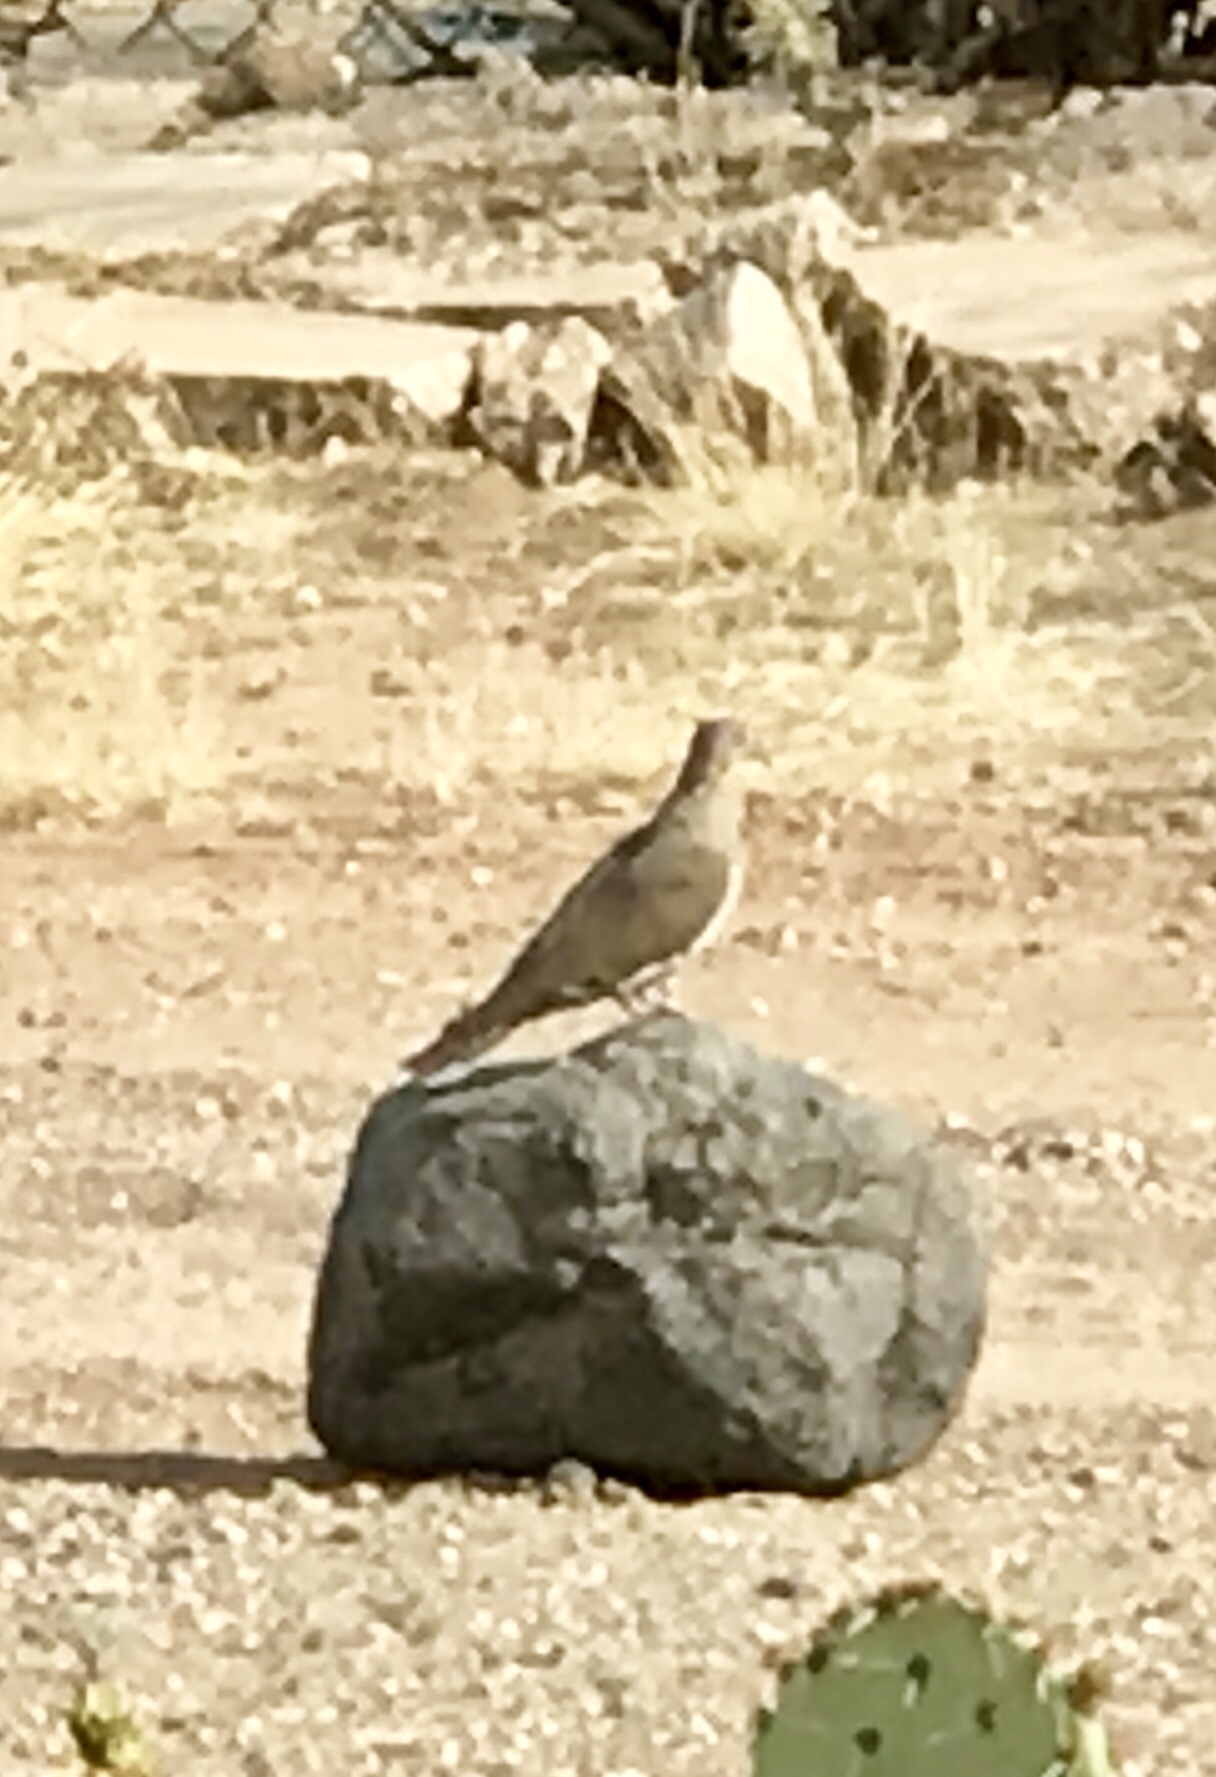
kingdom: Animalia
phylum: Chordata
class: Aves
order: Columbiformes
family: Columbidae
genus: Zenaida
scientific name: Zenaida macroura
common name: Mourning dove
